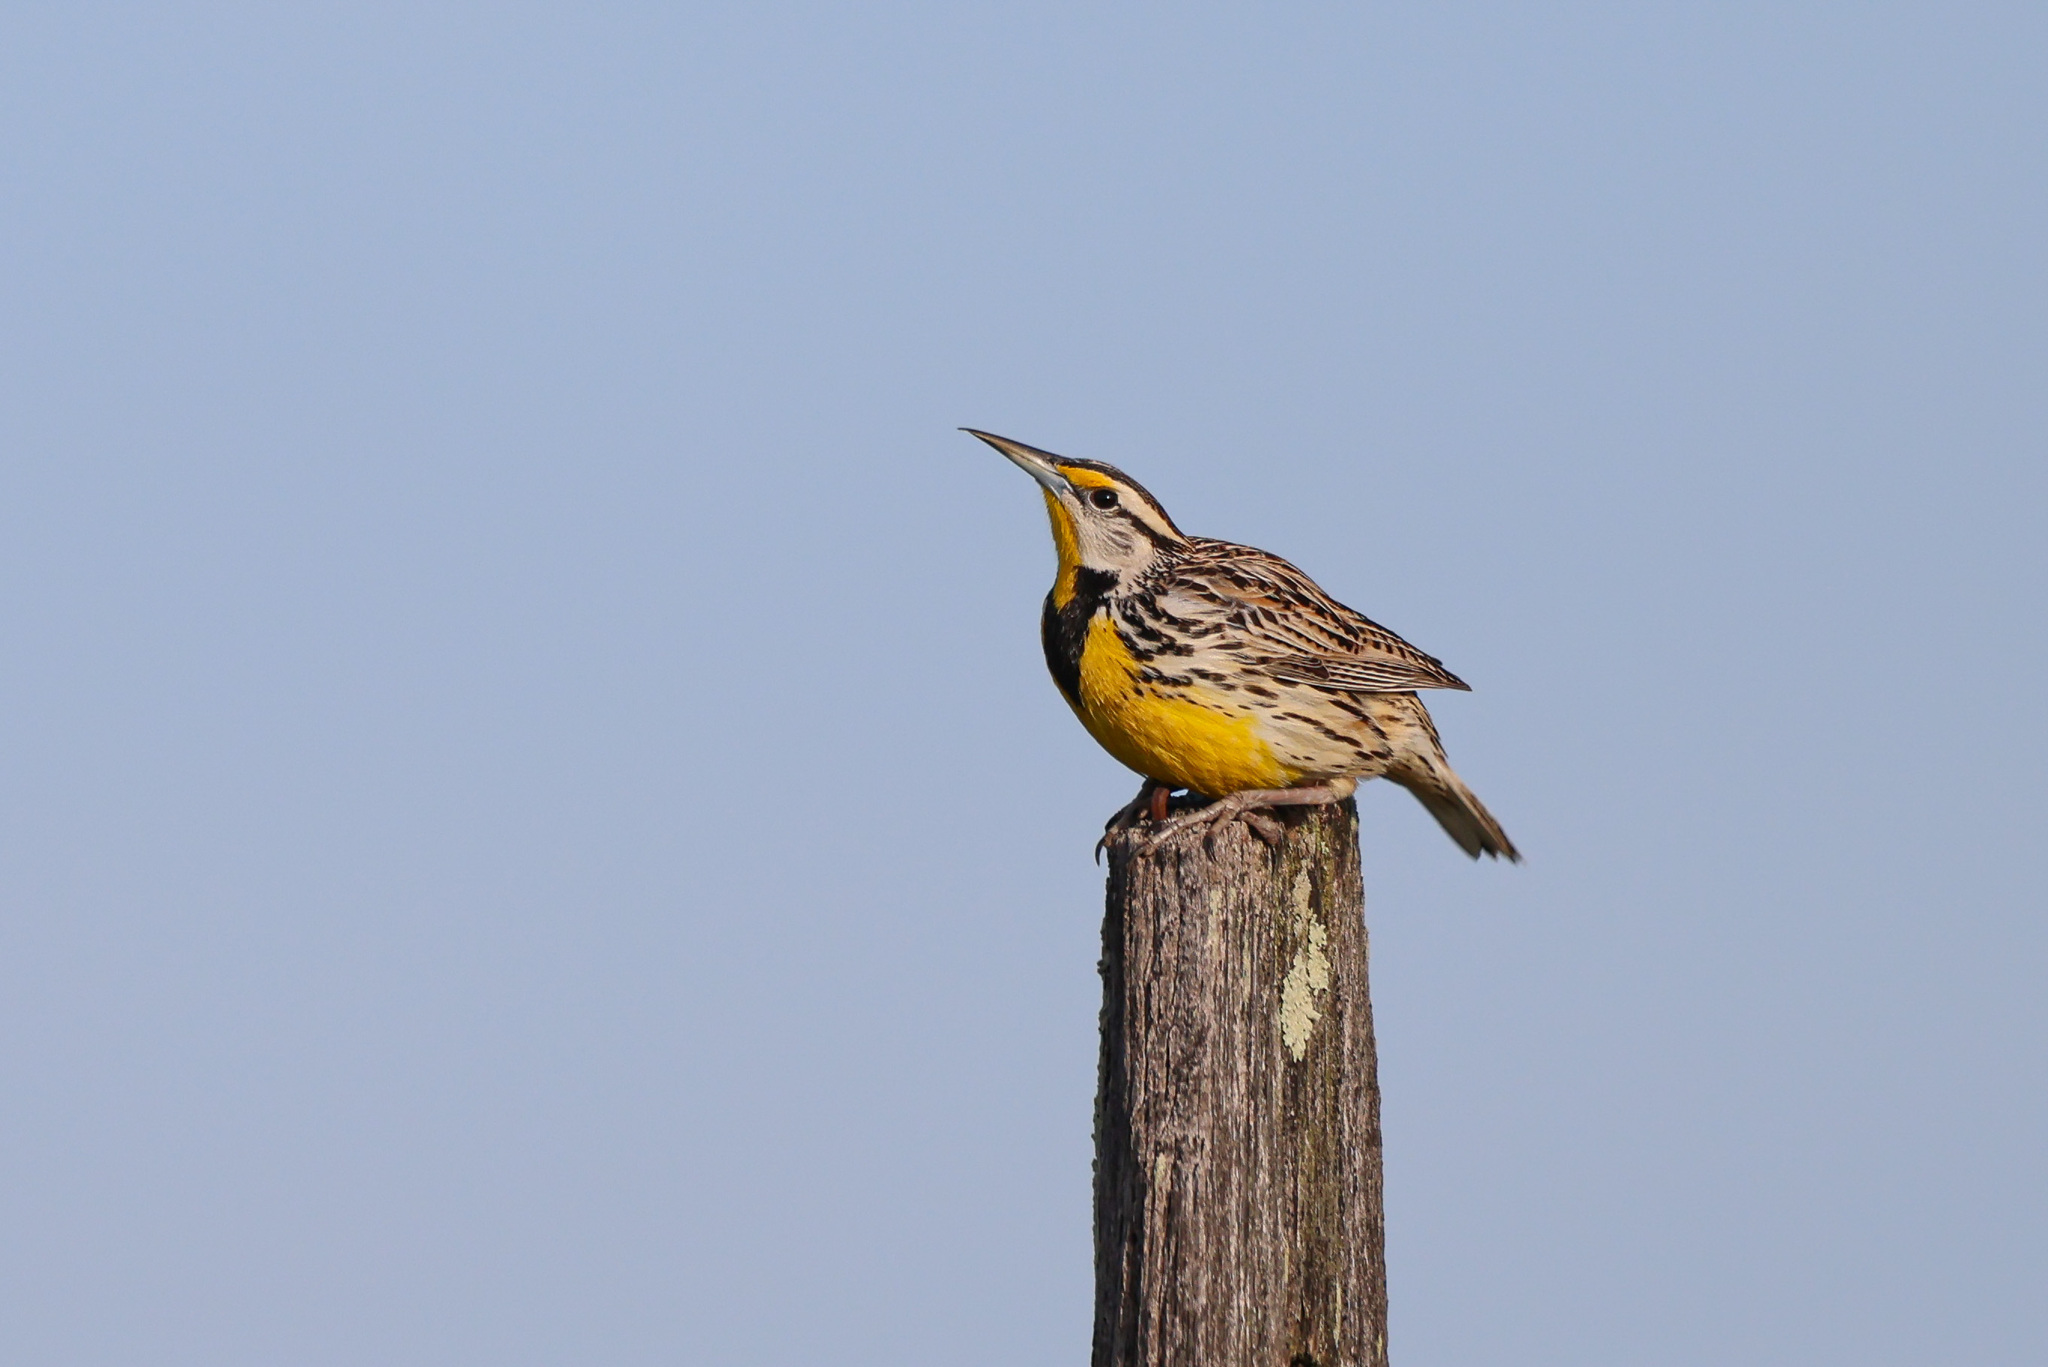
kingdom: Animalia
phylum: Chordata
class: Aves
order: Passeriformes
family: Icteridae
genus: Sturnella
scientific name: Sturnella magna
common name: Eastern meadowlark
